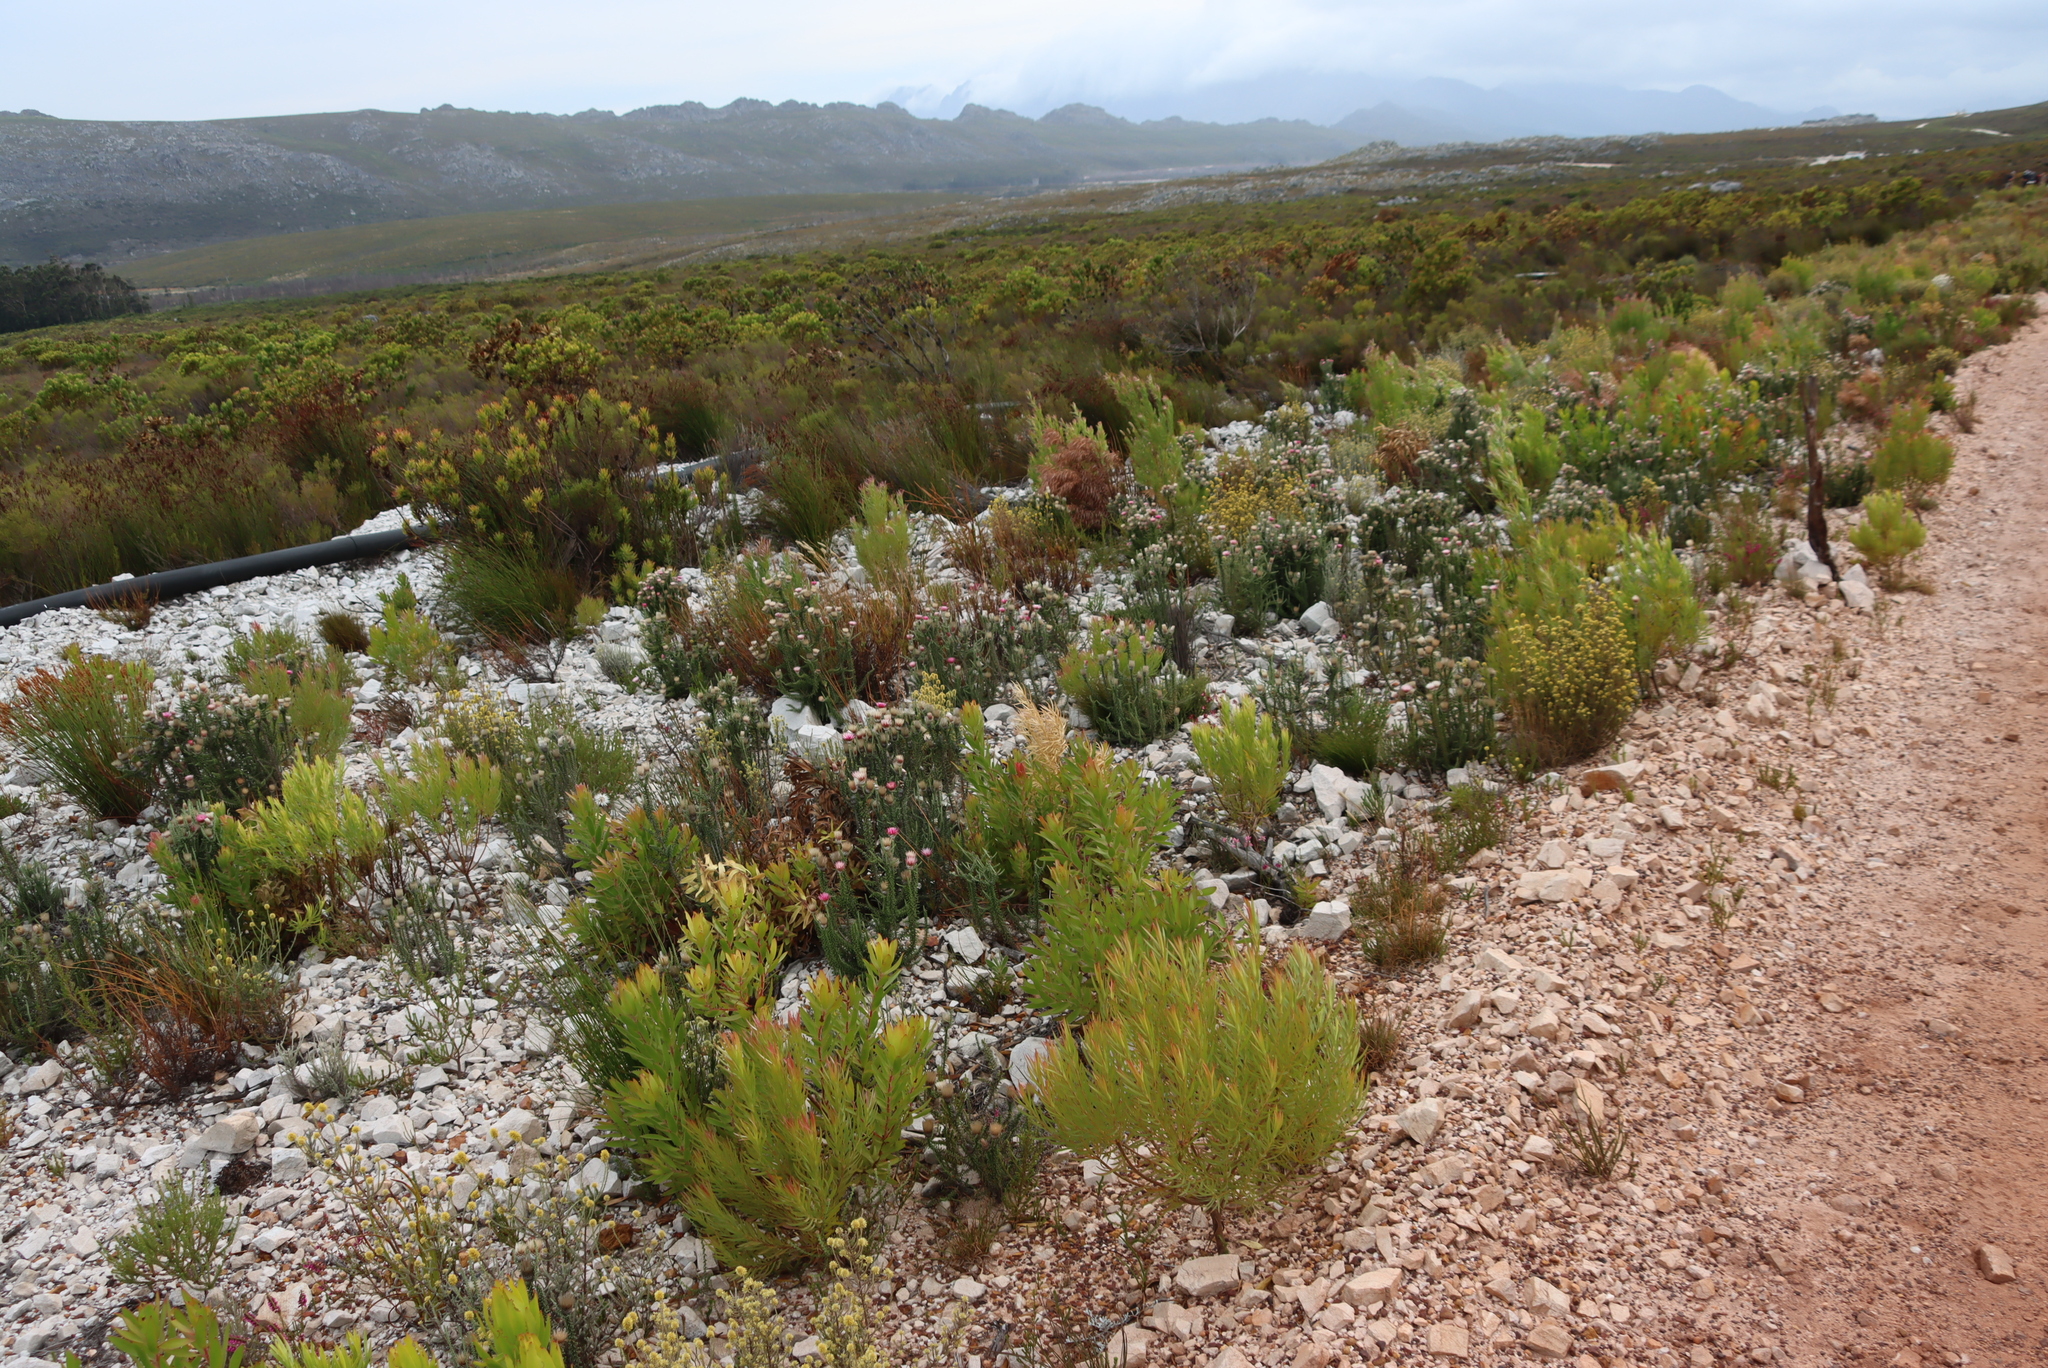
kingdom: Plantae
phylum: Tracheophyta
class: Magnoliopsida
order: Asterales
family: Asteraceae
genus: Phaenocoma
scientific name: Phaenocoma prolifera
